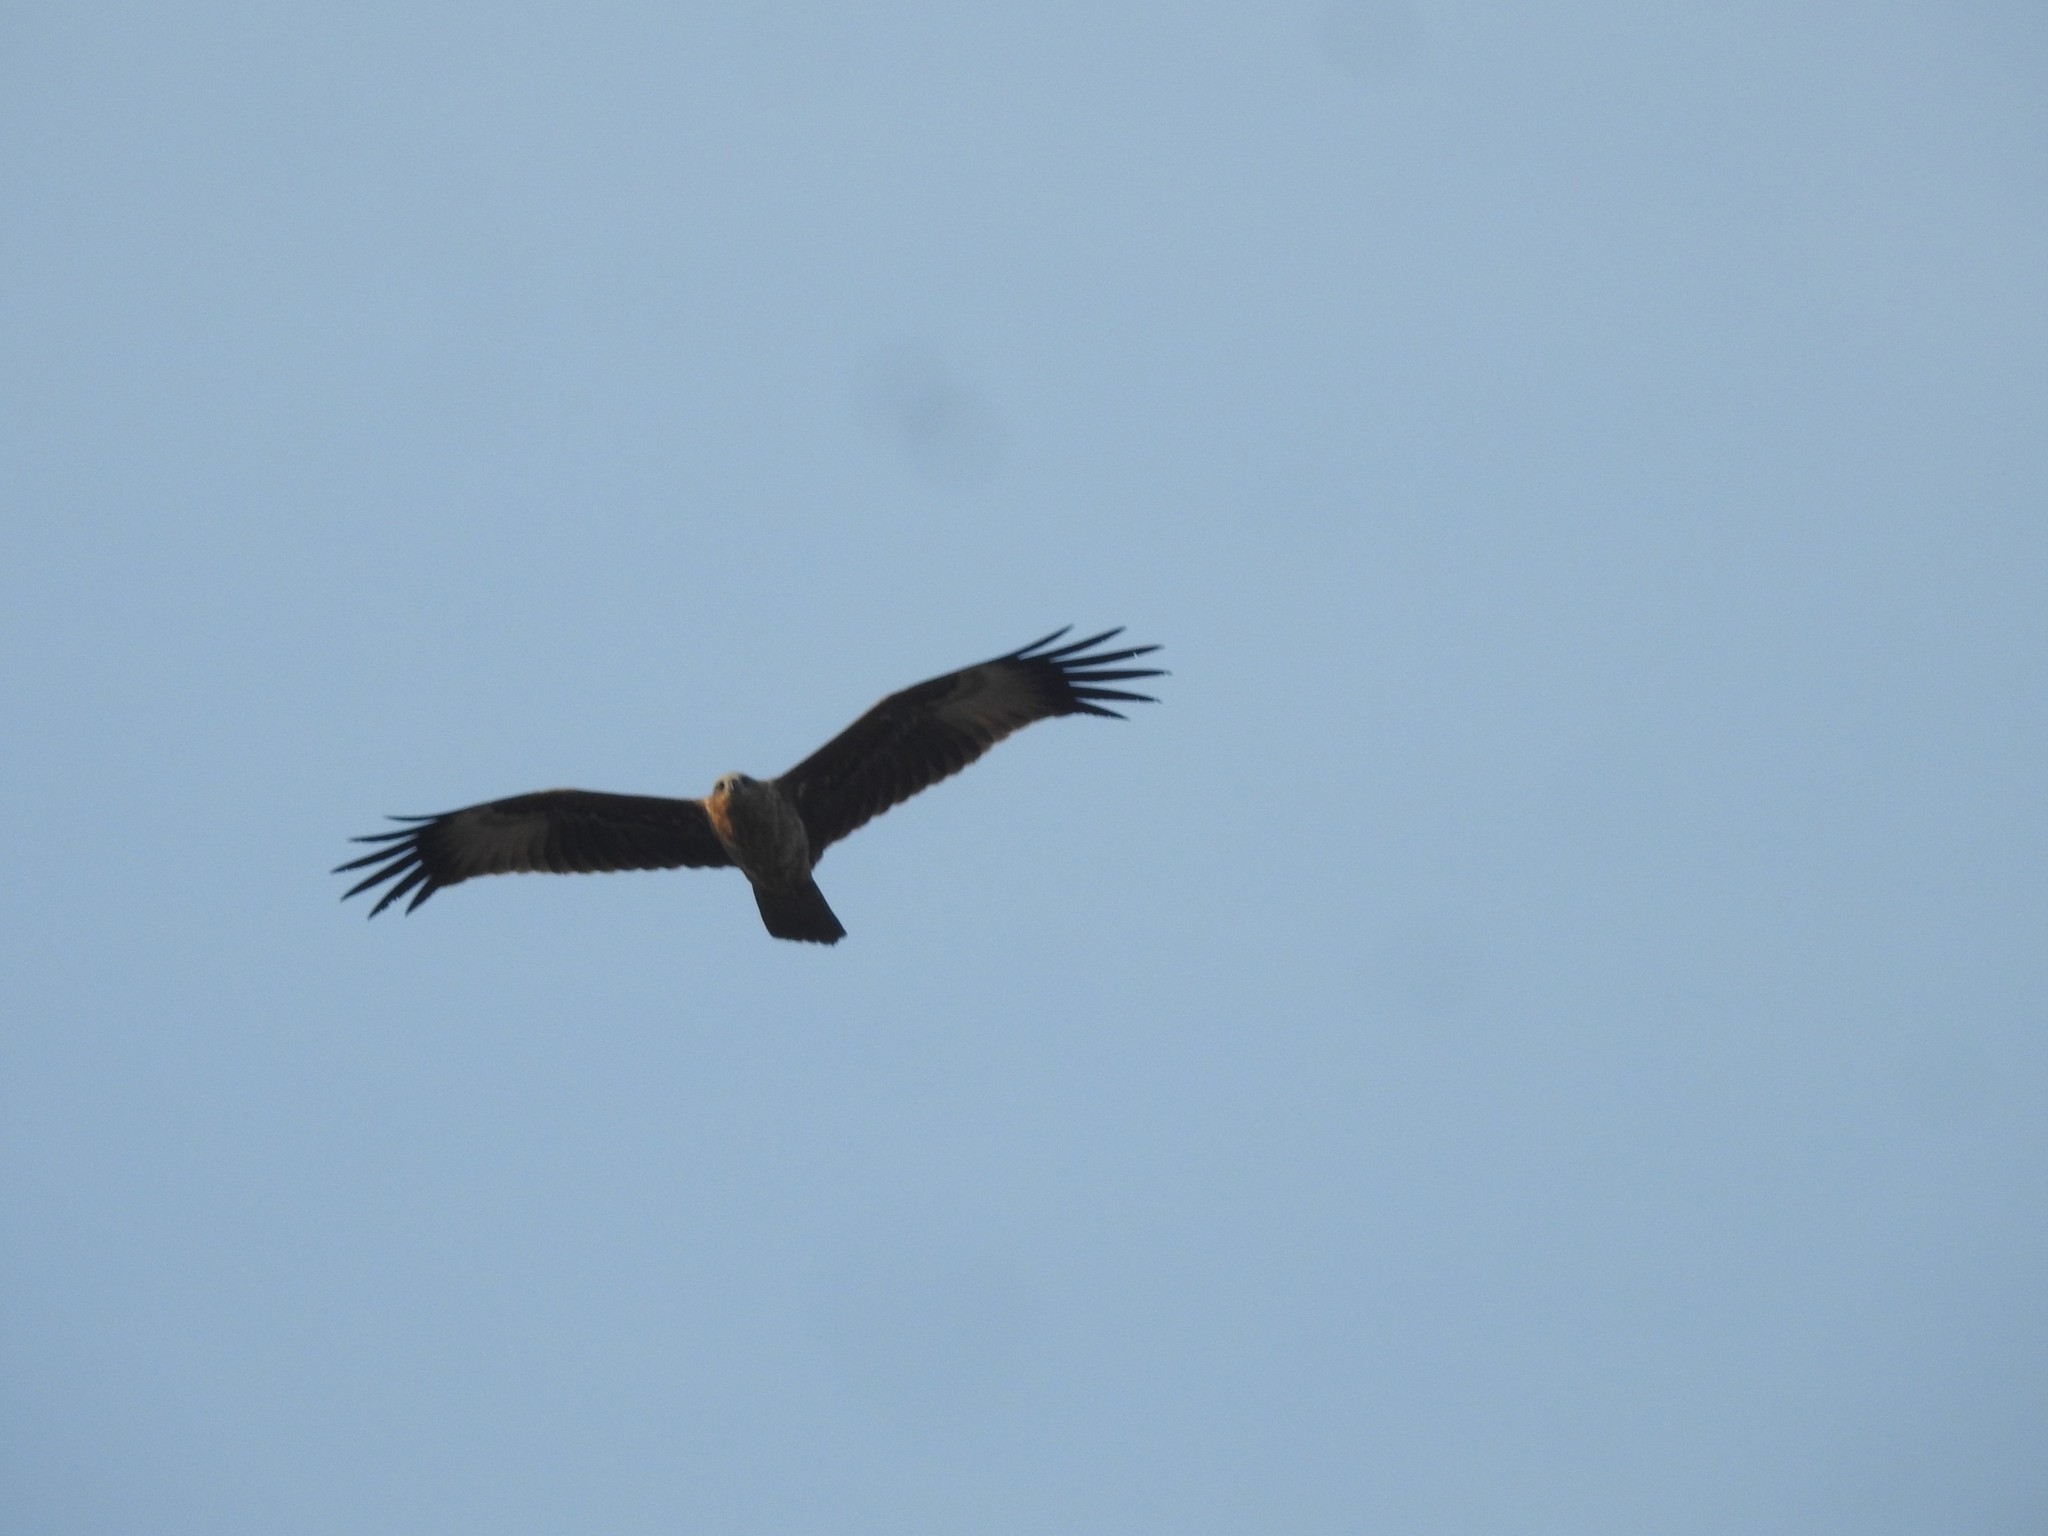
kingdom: Animalia
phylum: Chordata
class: Aves
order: Accipitriformes
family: Accipitridae
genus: Haliastur
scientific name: Haliastur indus
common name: Brahminy kite
